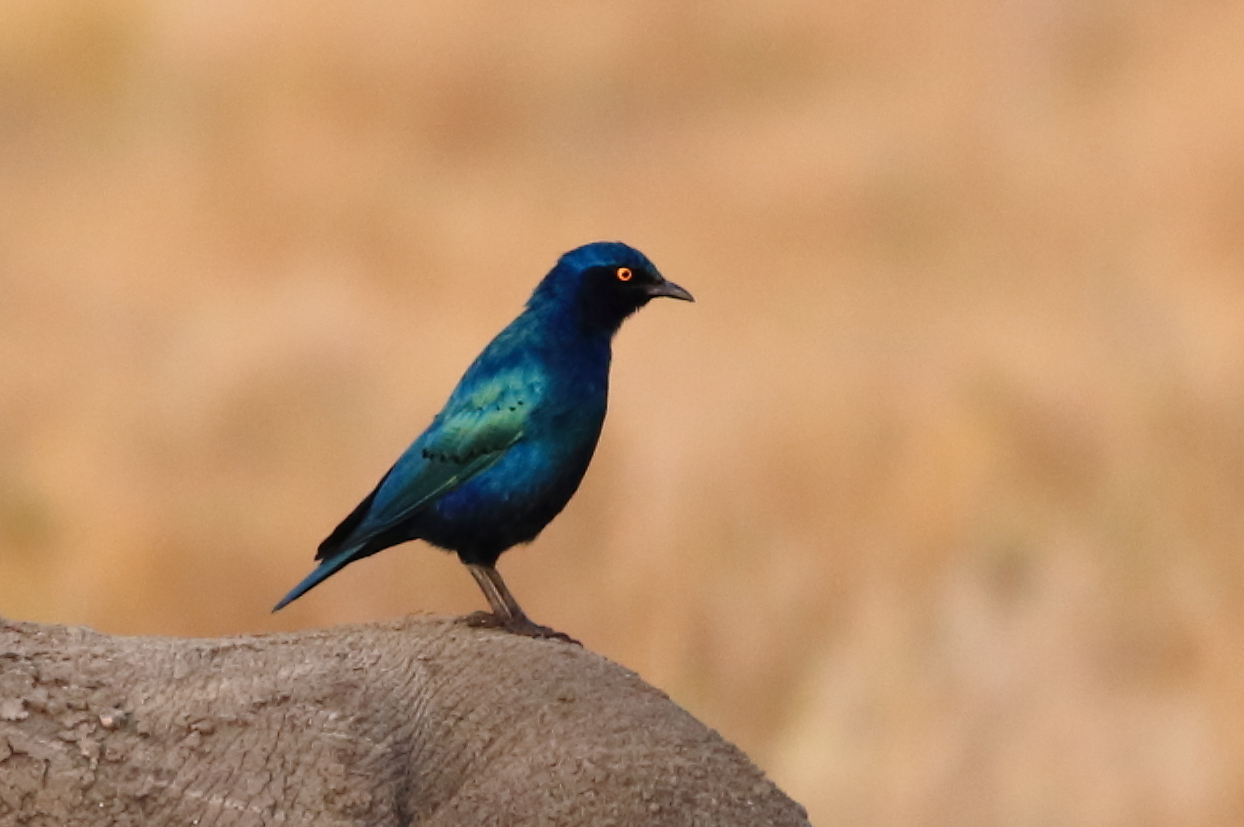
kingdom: Animalia
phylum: Chordata
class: Aves
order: Passeriformes
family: Sturnidae
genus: Lamprotornis
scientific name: Lamprotornis chalybaeus
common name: Greater blue-eared starling
